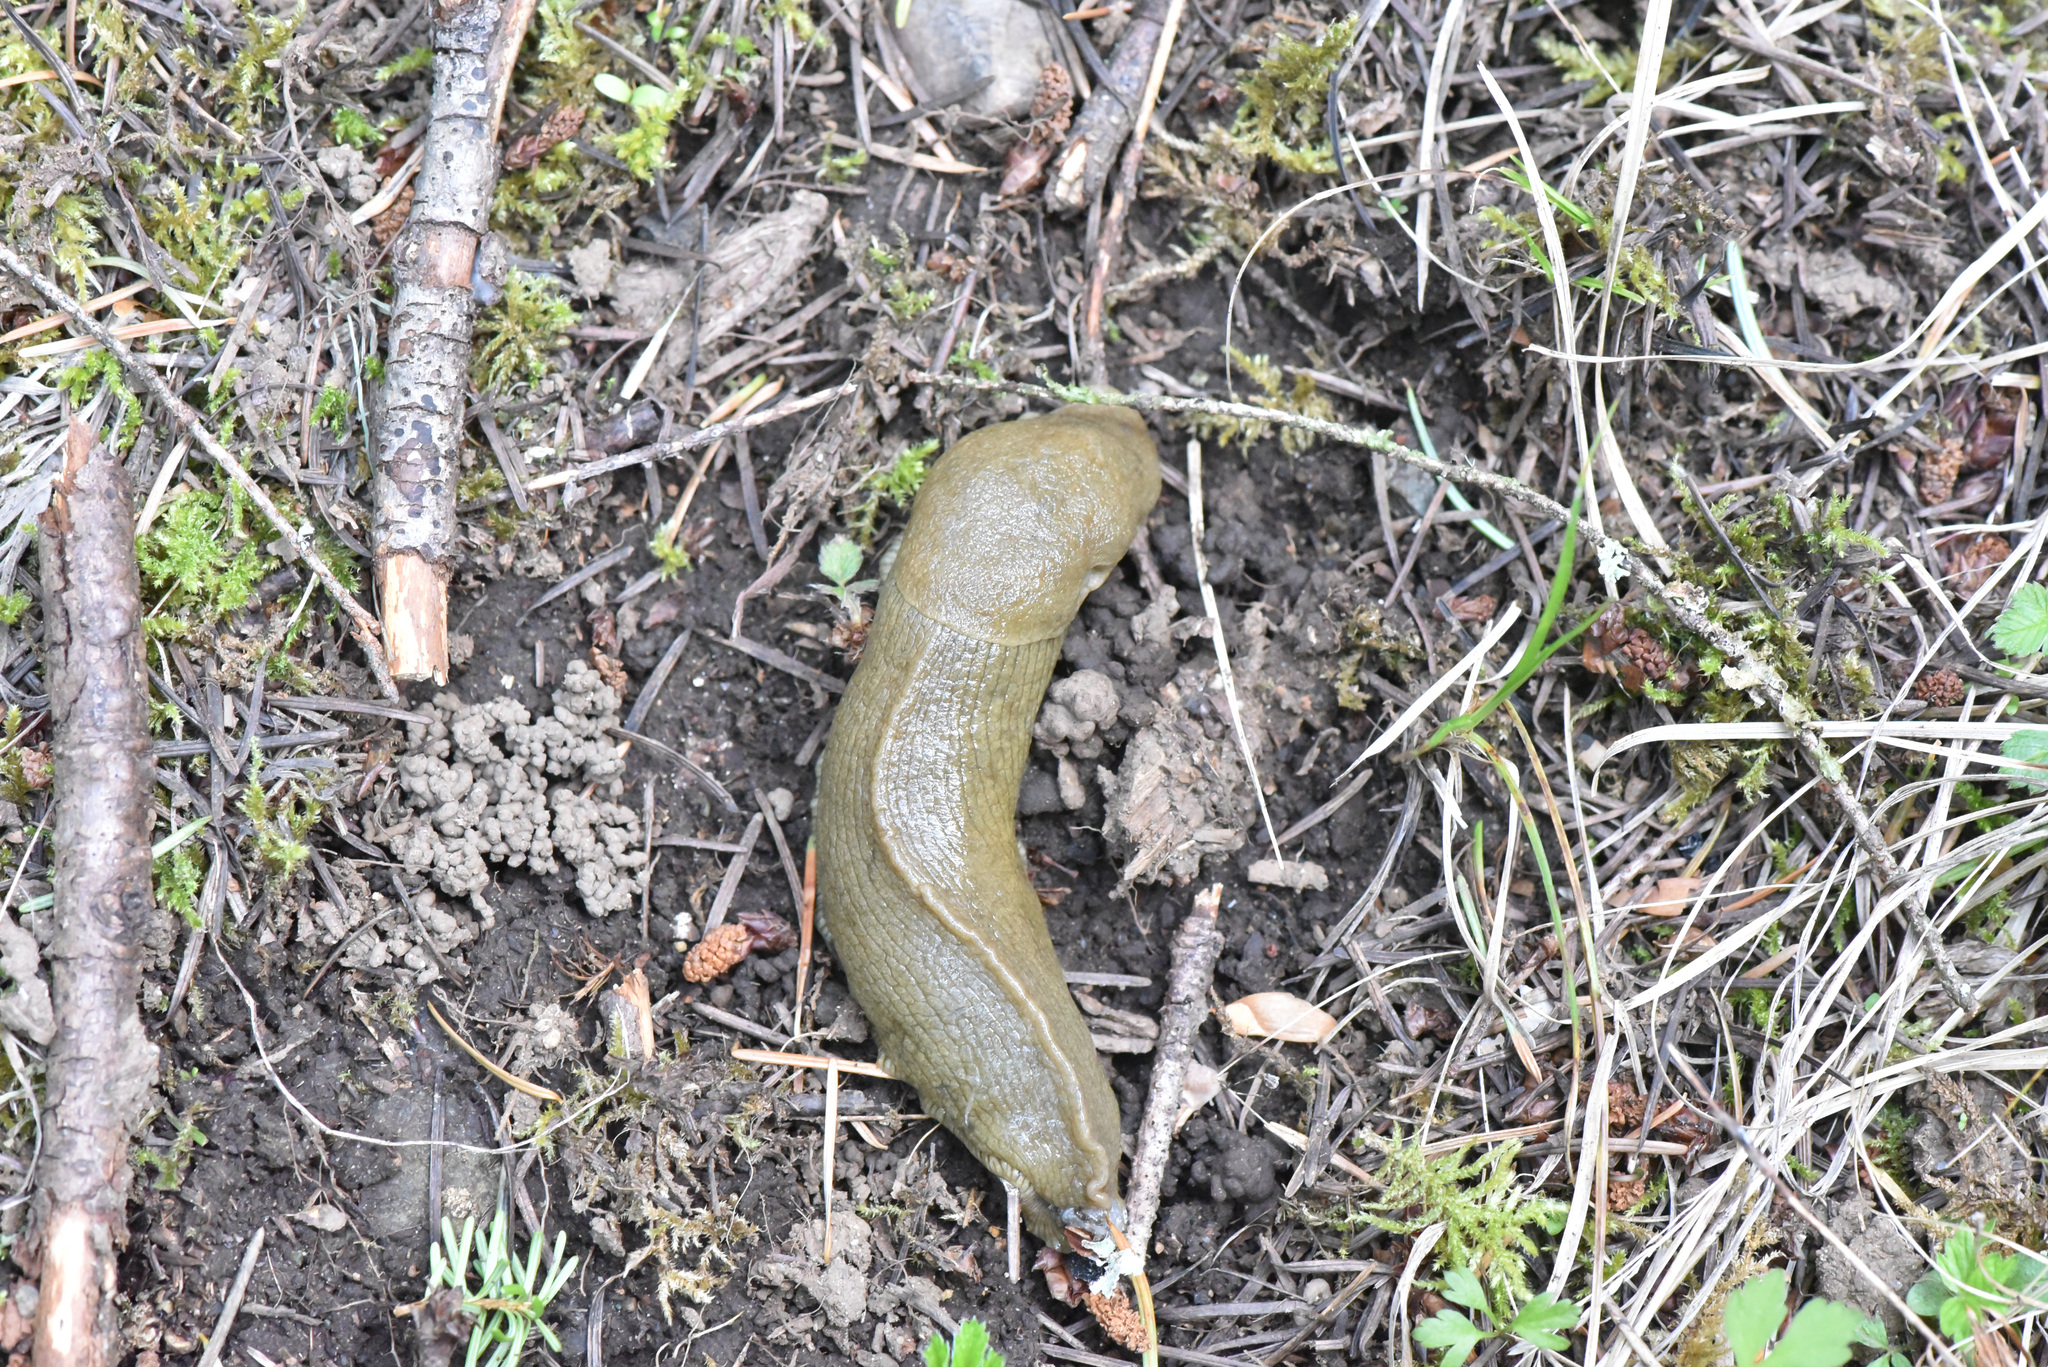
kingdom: Animalia
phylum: Mollusca
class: Gastropoda
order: Stylommatophora
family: Ariolimacidae
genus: Ariolimax
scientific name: Ariolimax columbianus
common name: Pacific banana slug
